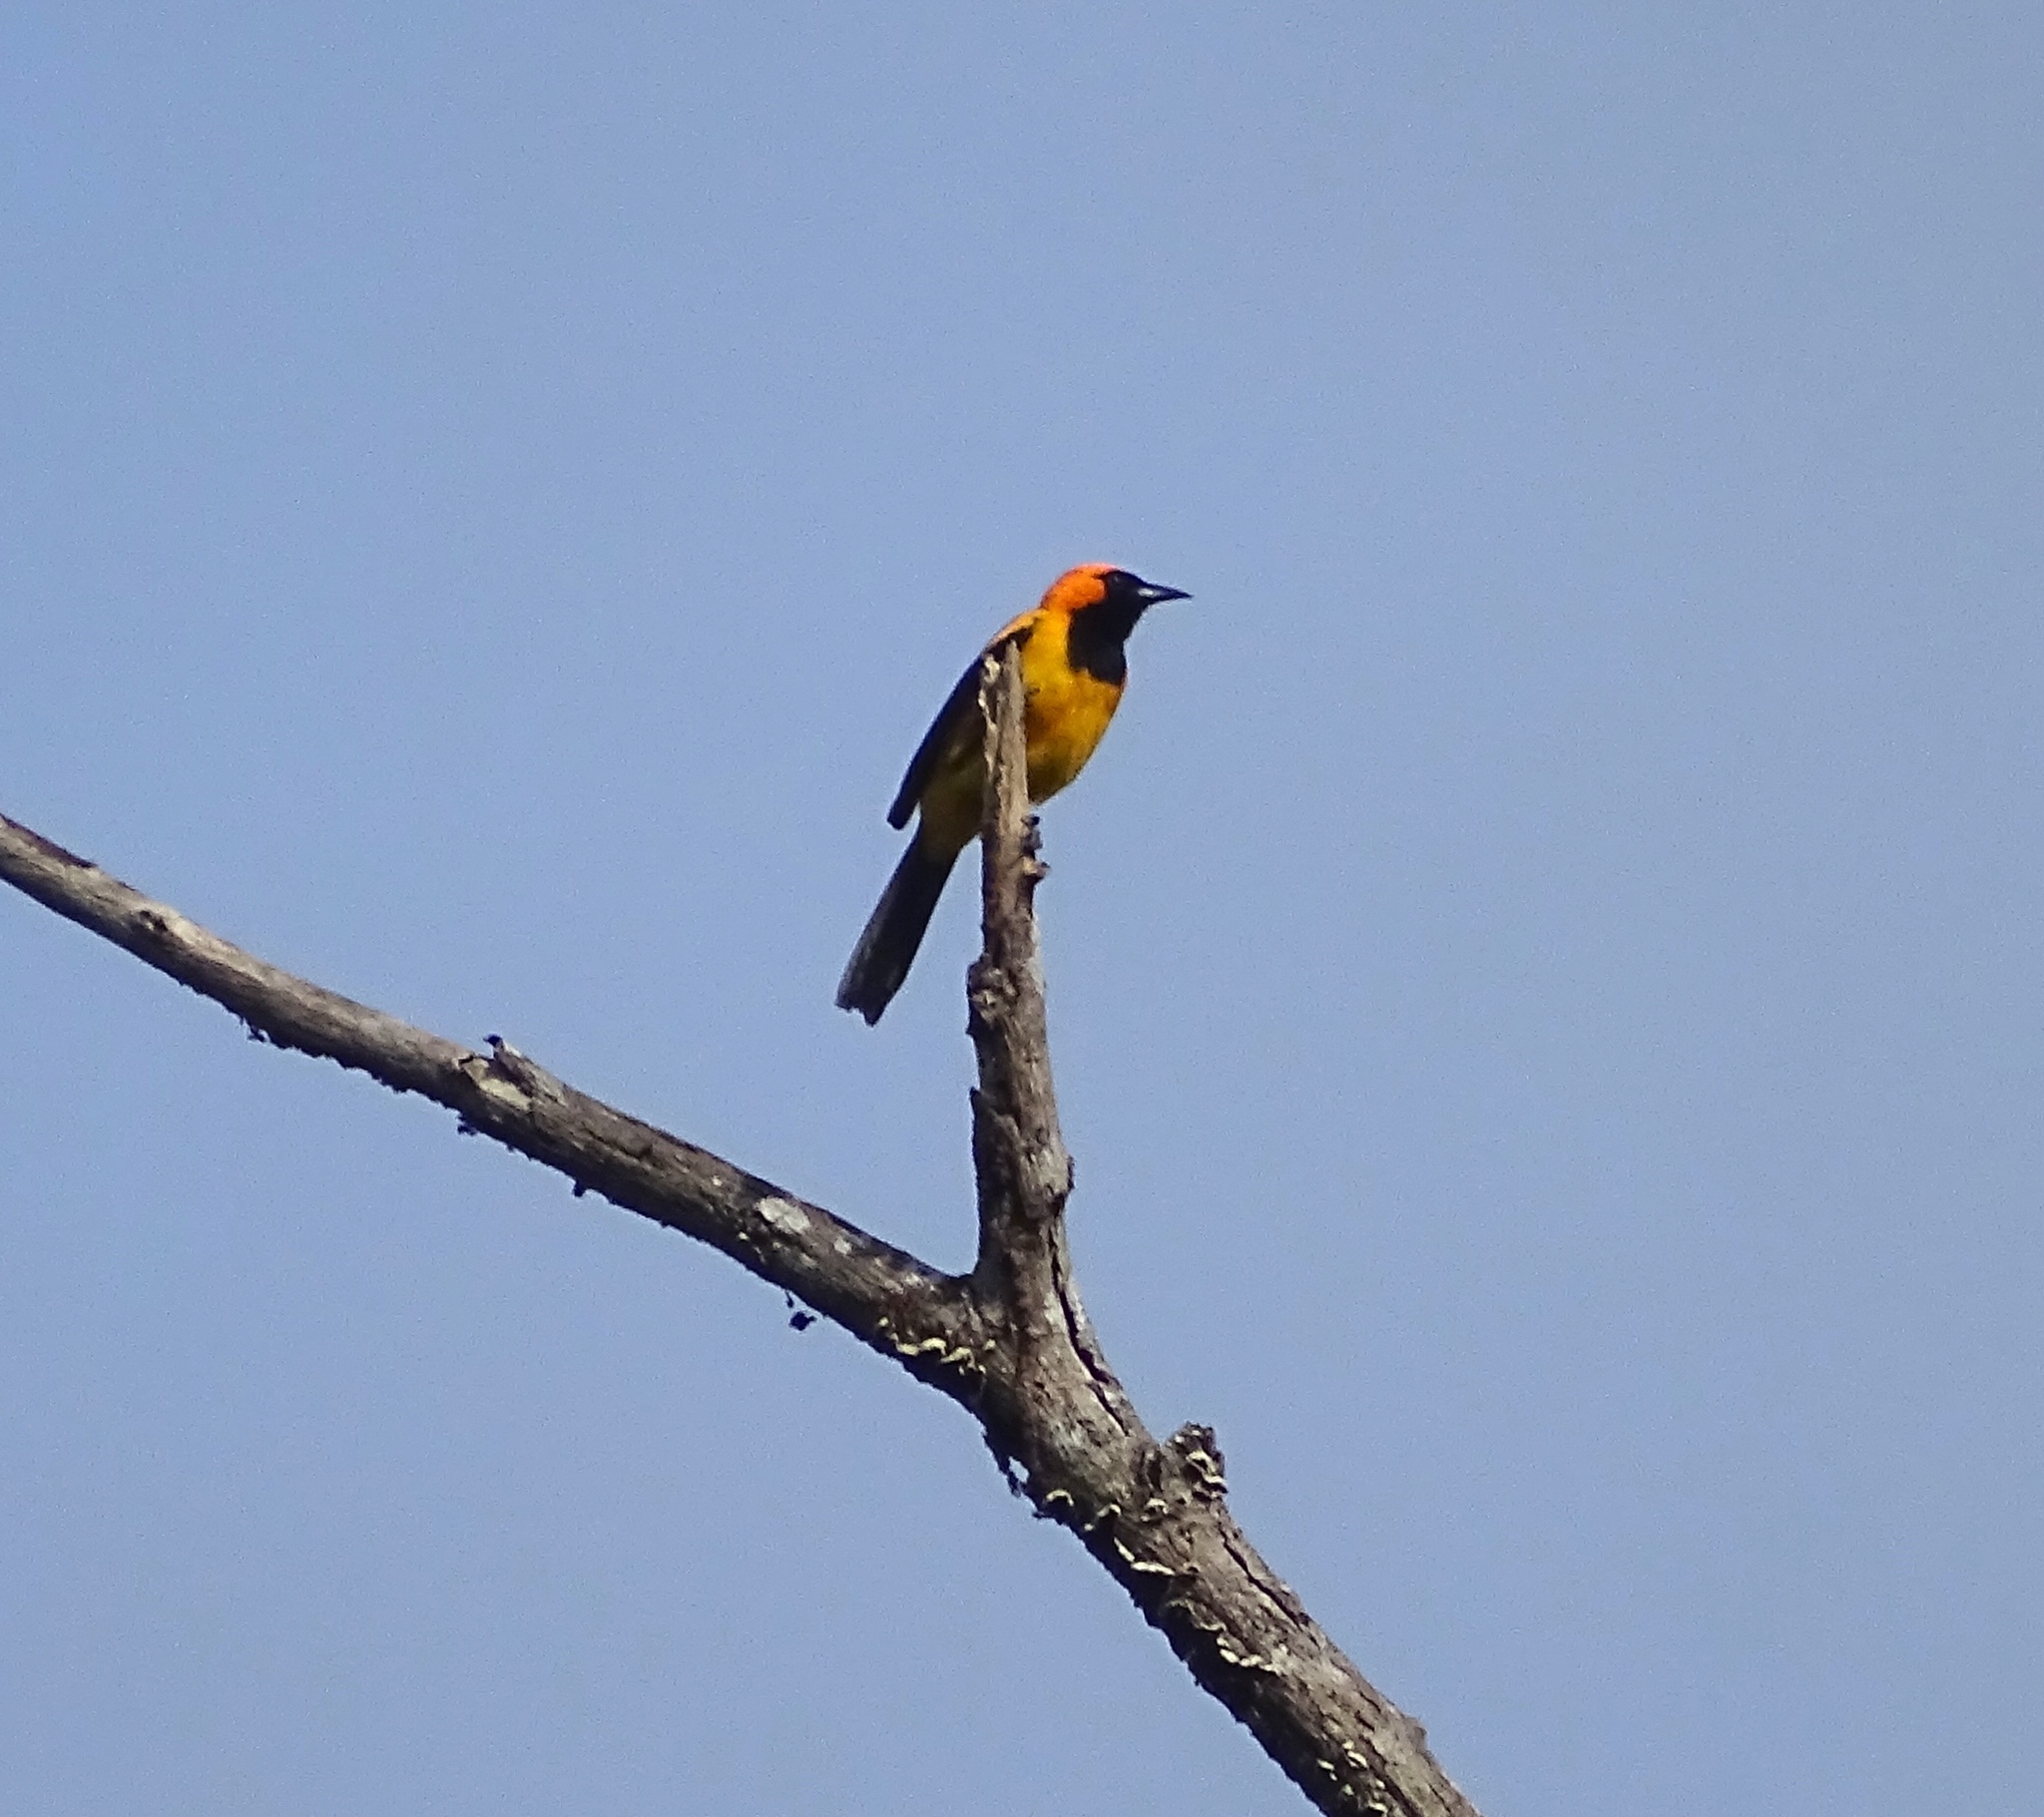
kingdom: Animalia
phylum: Chordata
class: Aves
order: Passeriformes
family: Icteridae
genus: Icterus
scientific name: Icterus auricapillus
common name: Orange-crowned oriole
